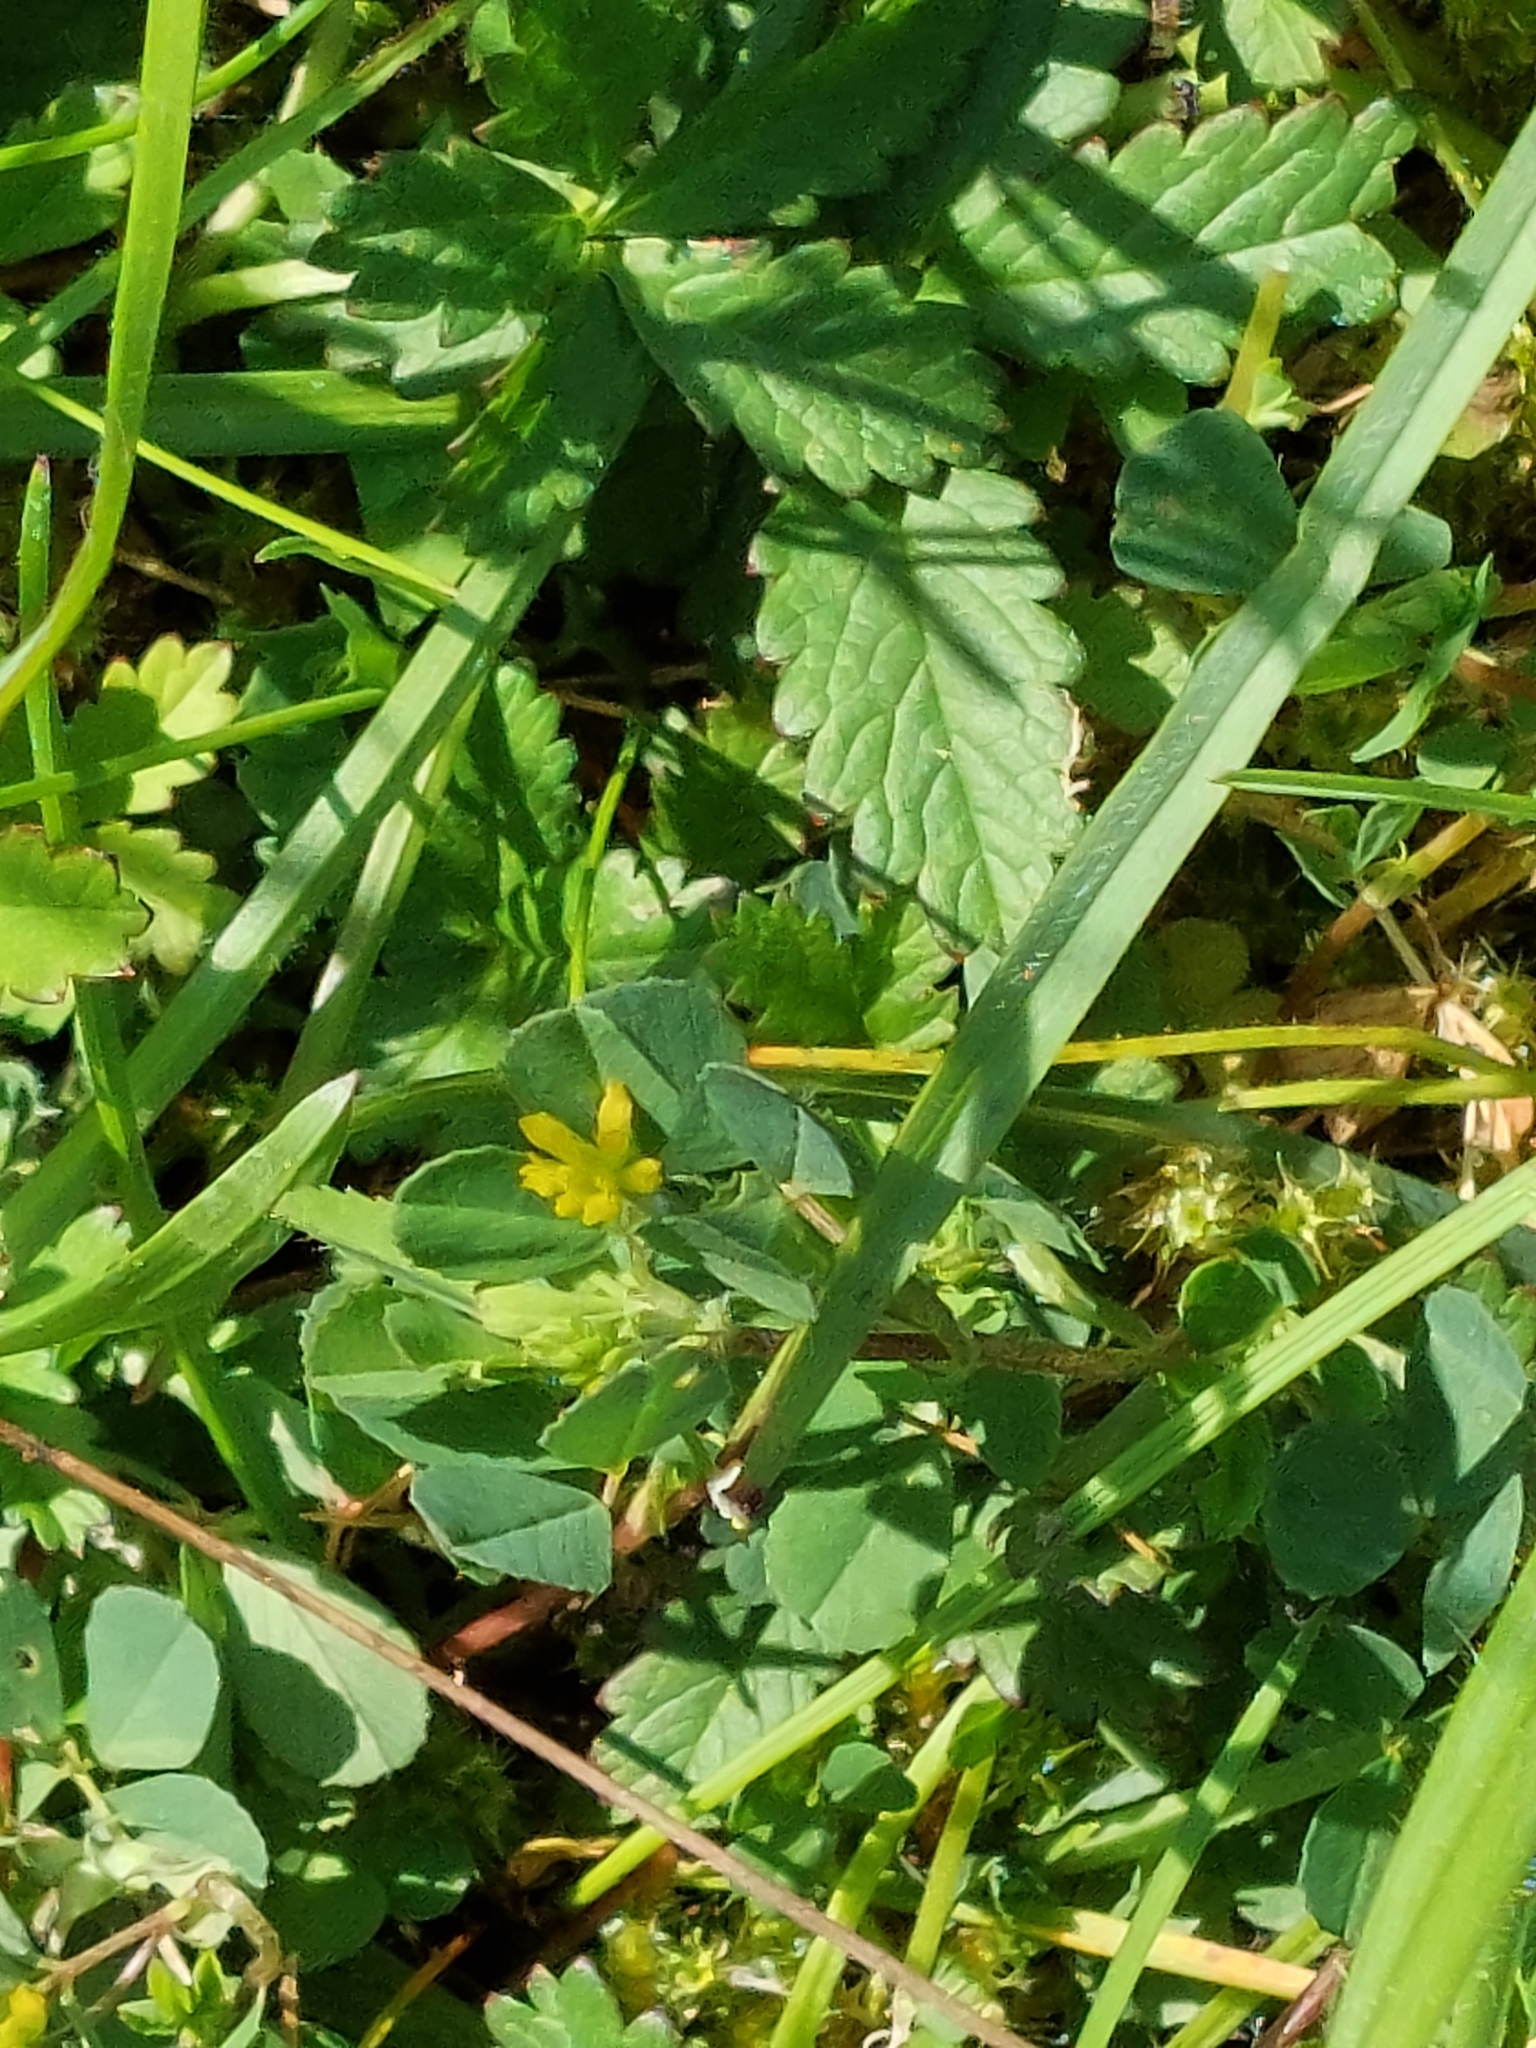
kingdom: Plantae
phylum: Tracheophyta
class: Magnoliopsida
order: Fabales
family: Fabaceae
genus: Trifolium
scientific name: Trifolium dubium
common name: Suckling clover
